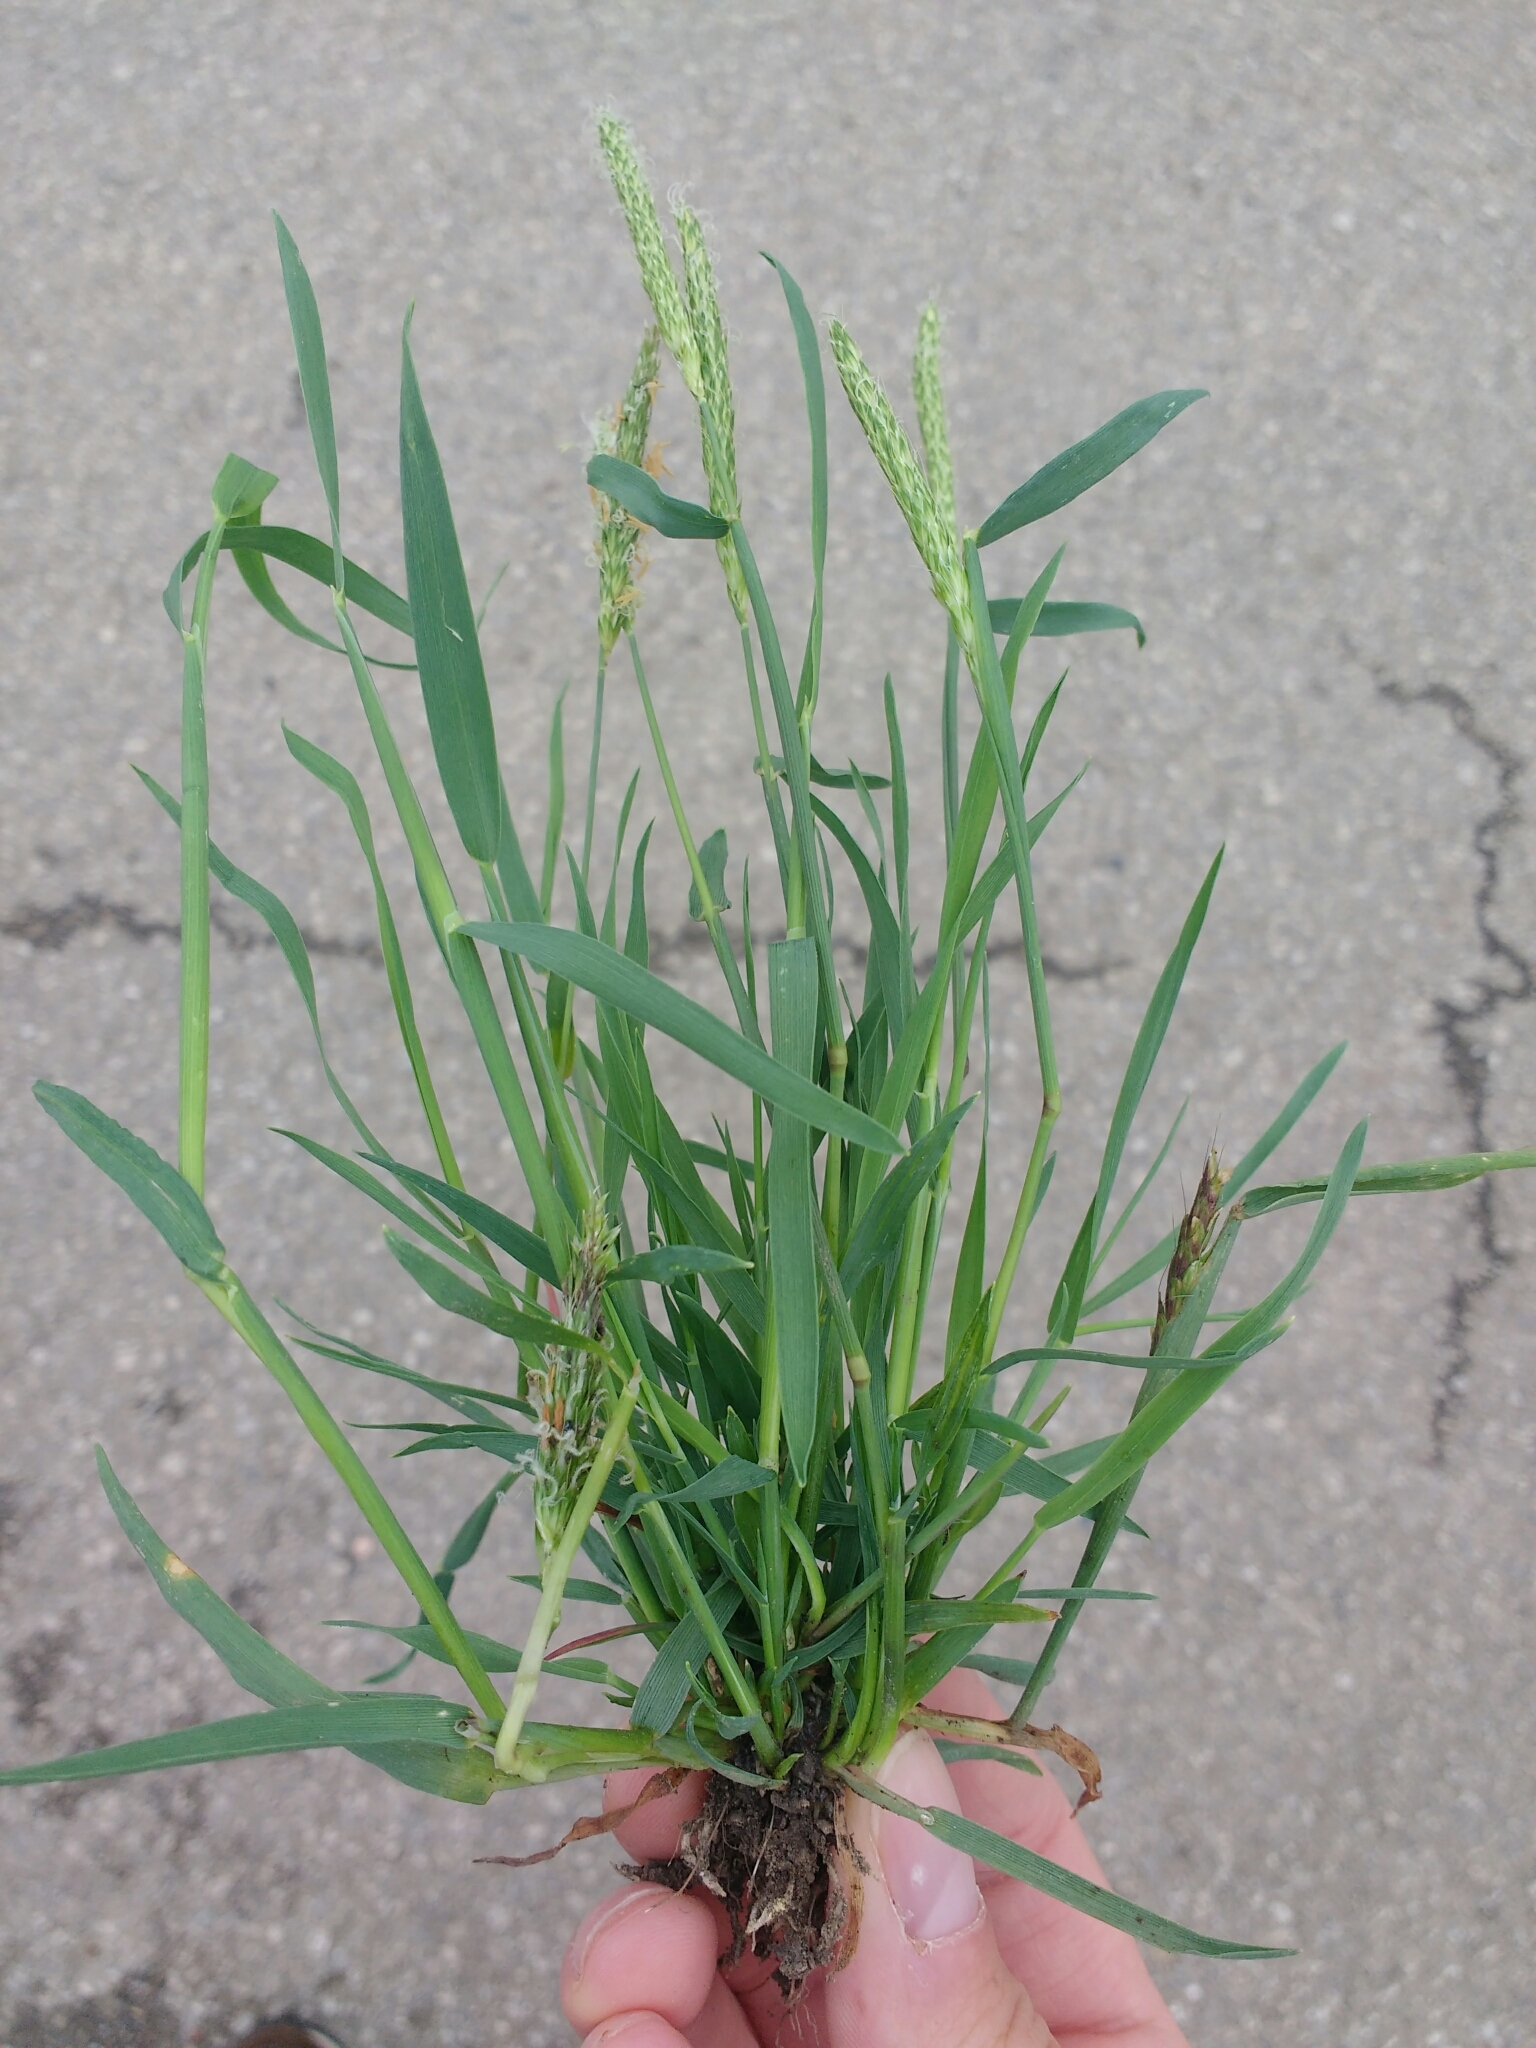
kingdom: Plantae
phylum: Tracheophyta
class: Liliopsida
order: Poales
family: Poaceae
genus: Alopecurus
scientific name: Alopecurus myosuroides
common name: Black-grass
